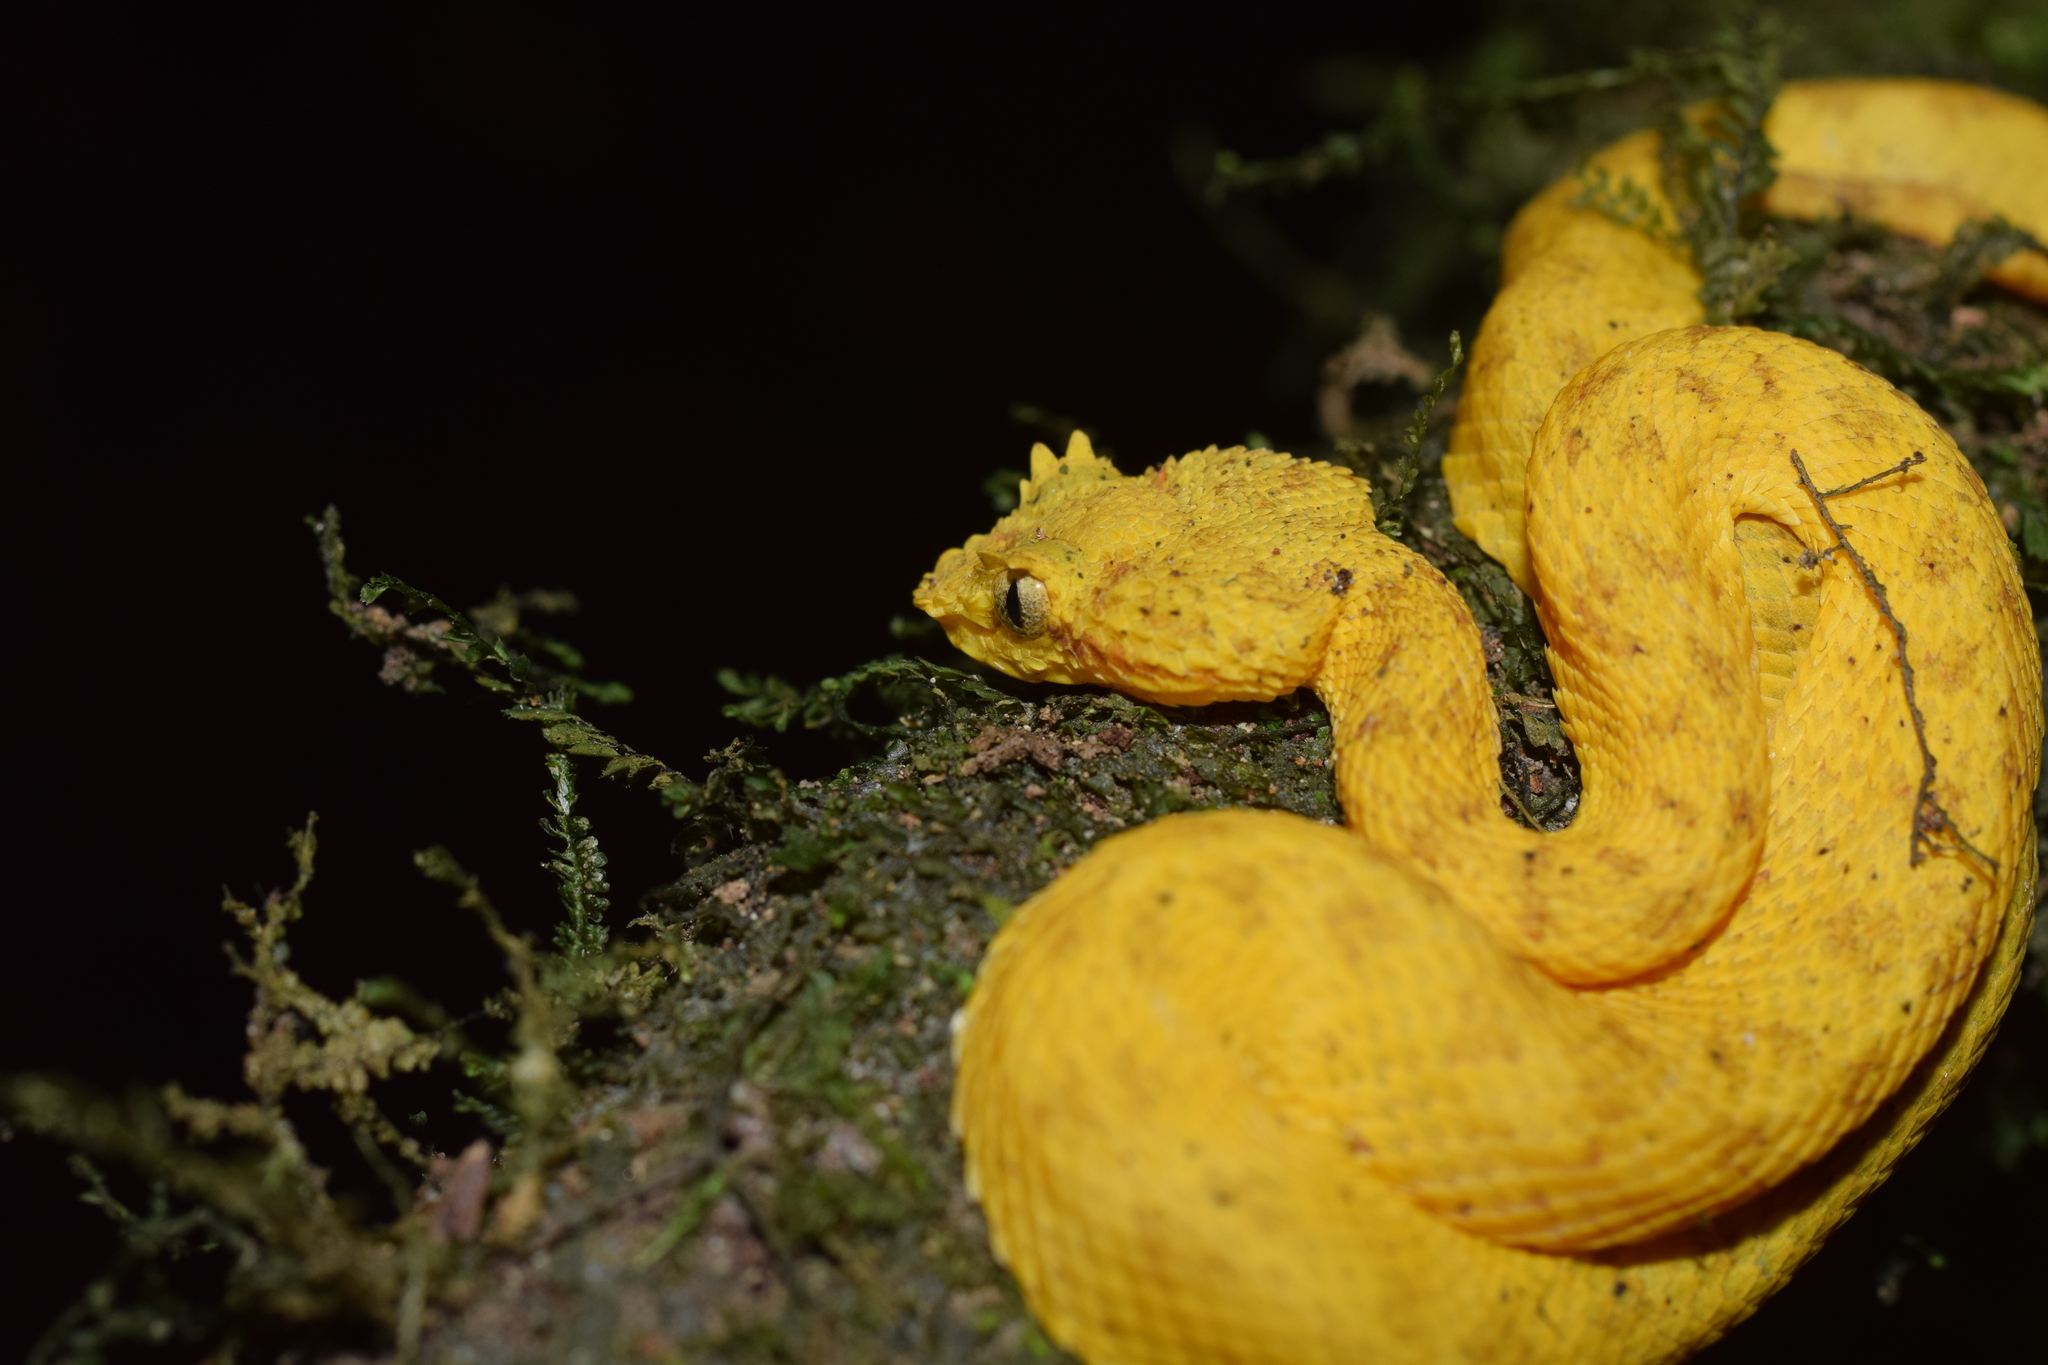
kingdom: Animalia
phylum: Chordata
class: Squamata
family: Viperidae
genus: Bothriechis
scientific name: Bothriechis schlegelii
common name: Eyelash viper
